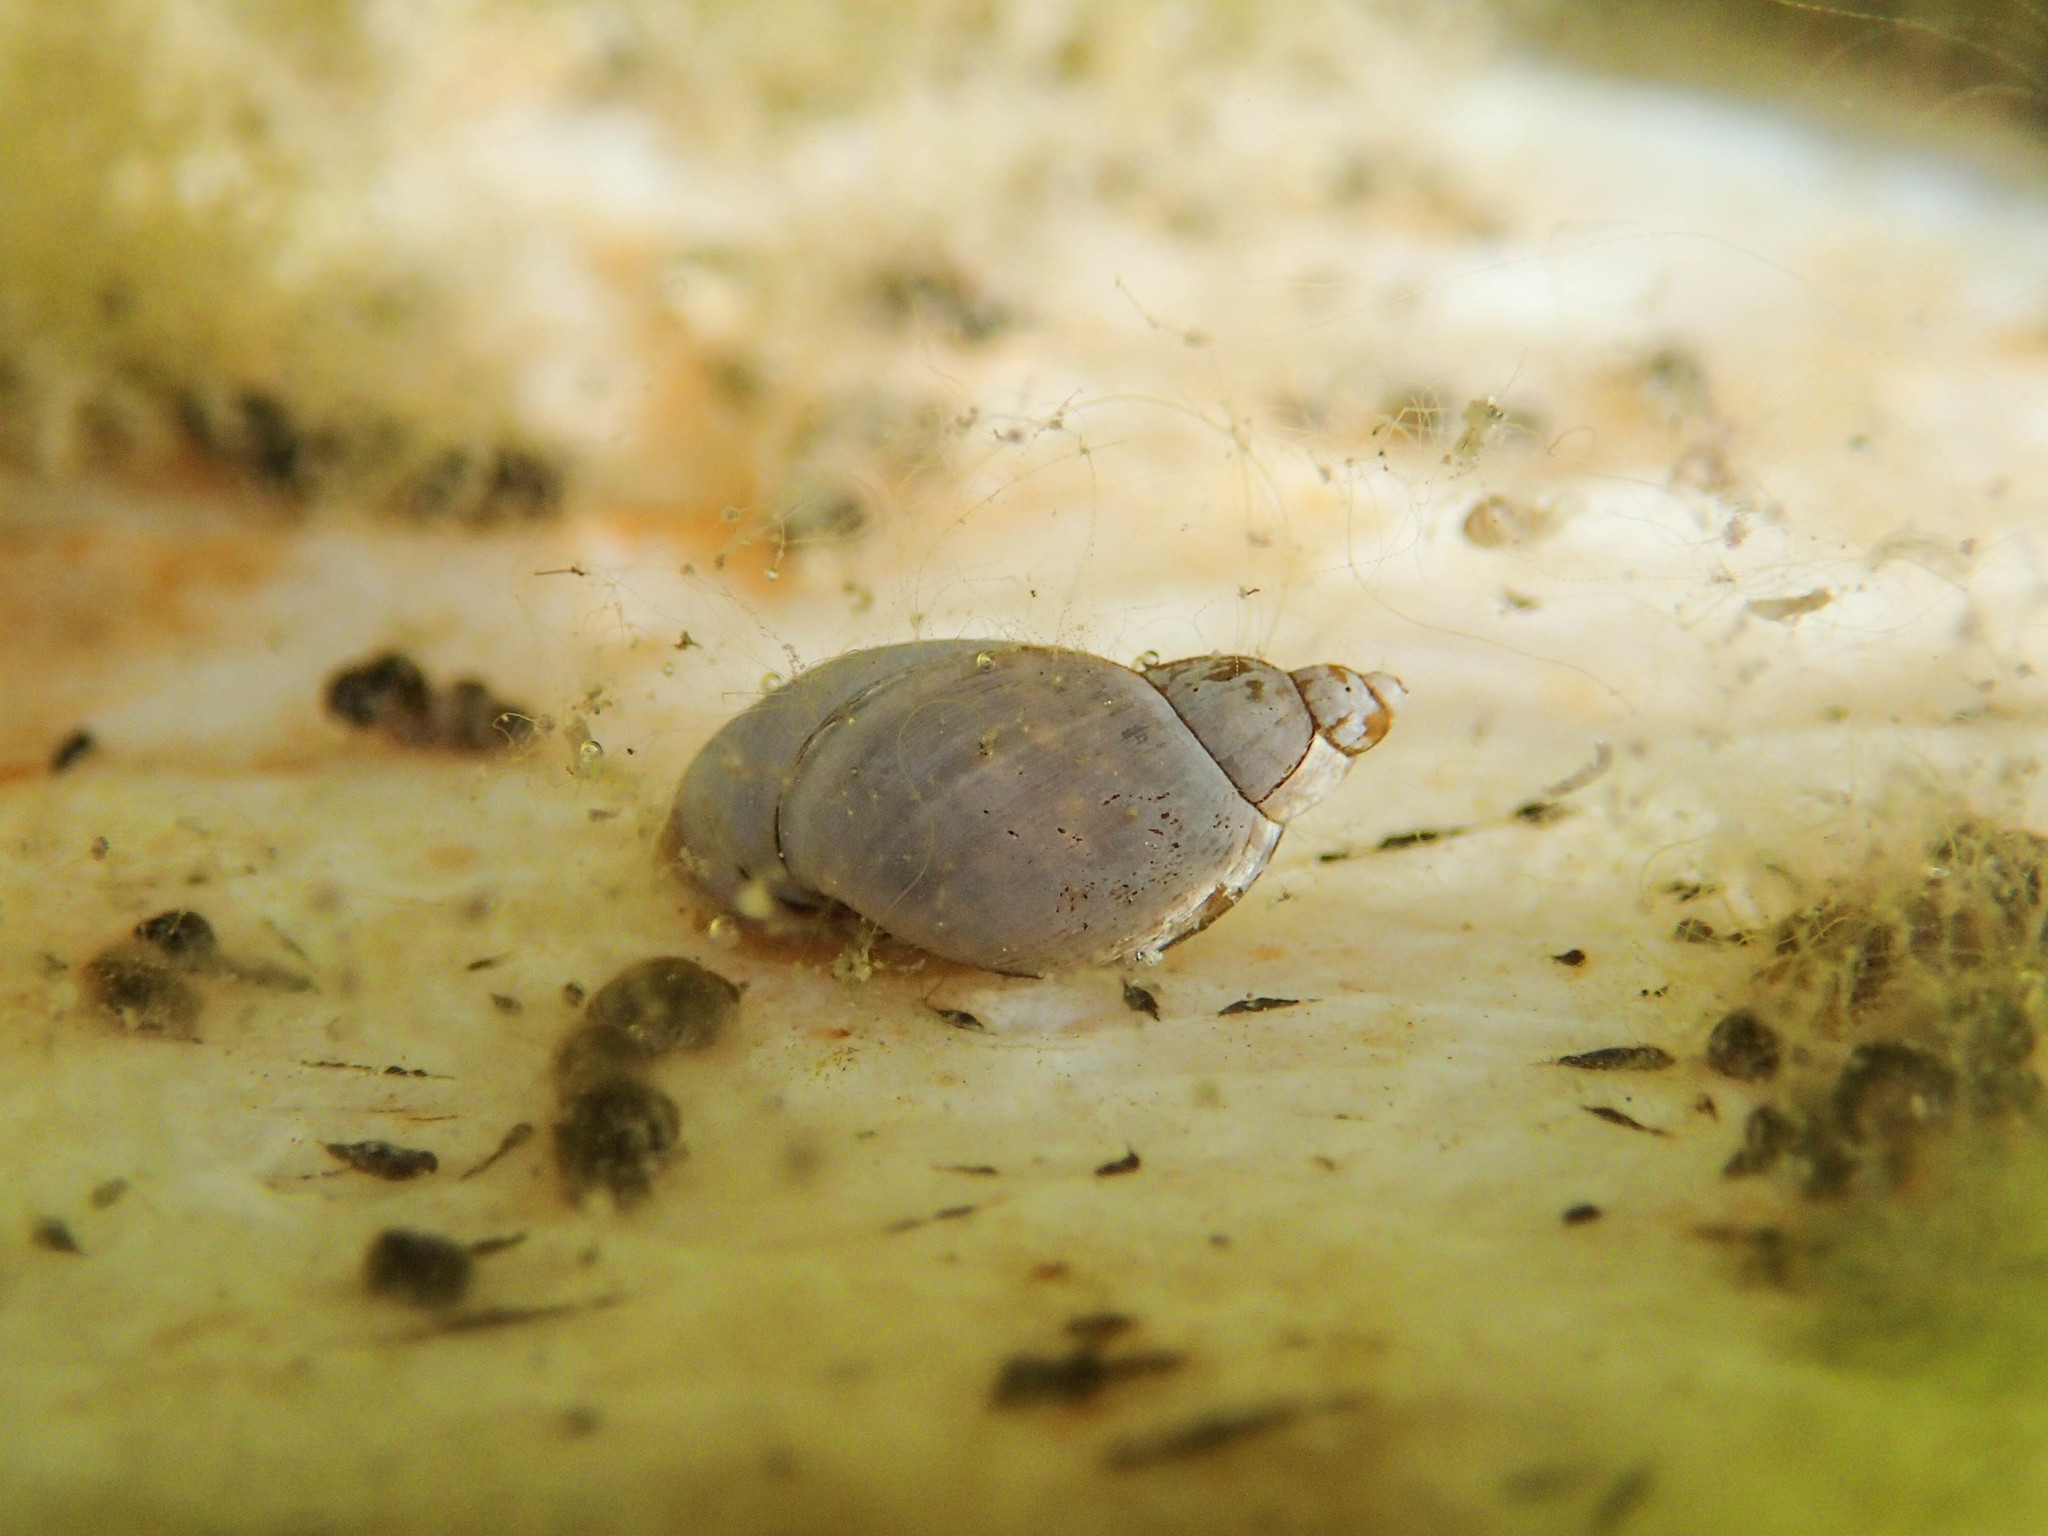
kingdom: Animalia
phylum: Mollusca
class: Gastropoda
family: Lymnaeidae
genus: Peregriana
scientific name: Peregriana peregra
